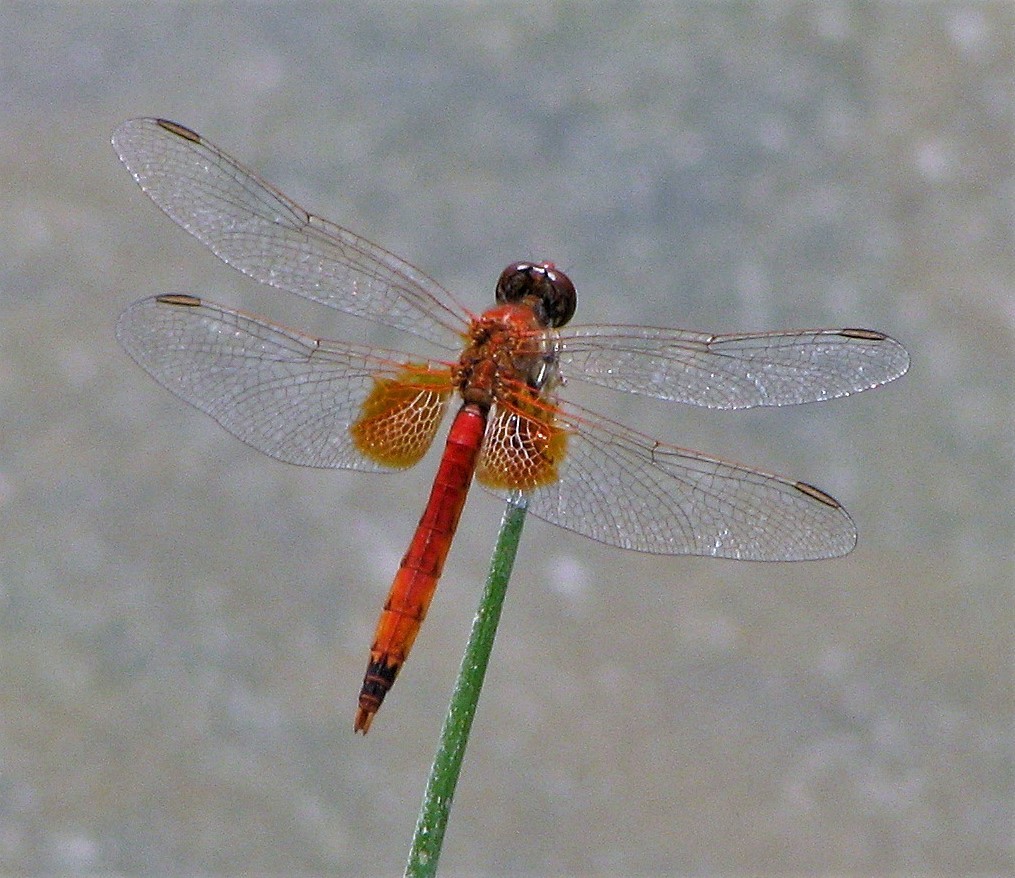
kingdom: Animalia
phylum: Arthropoda
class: Insecta
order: Odonata
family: Libellulidae
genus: Erythrodiplax
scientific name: Erythrodiplax corallina
